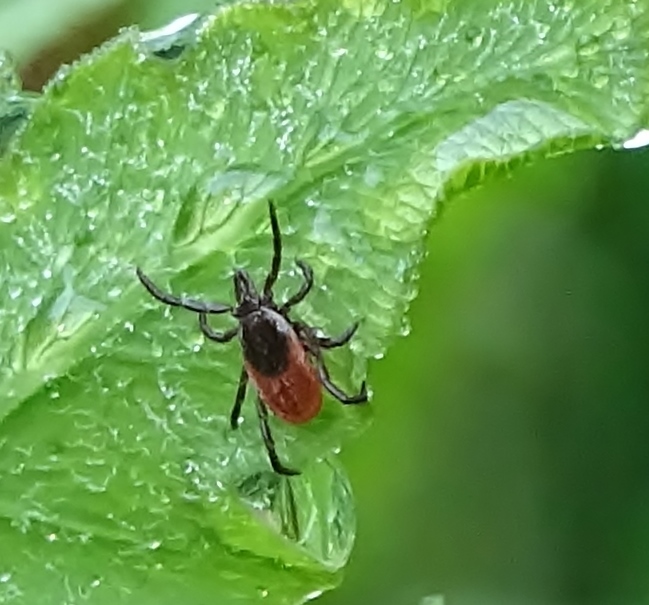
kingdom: Animalia
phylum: Arthropoda
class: Arachnida
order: Ixodida
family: Ixodidae
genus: Ixodes
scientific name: Ixodes scapularis
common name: Black legged tick
